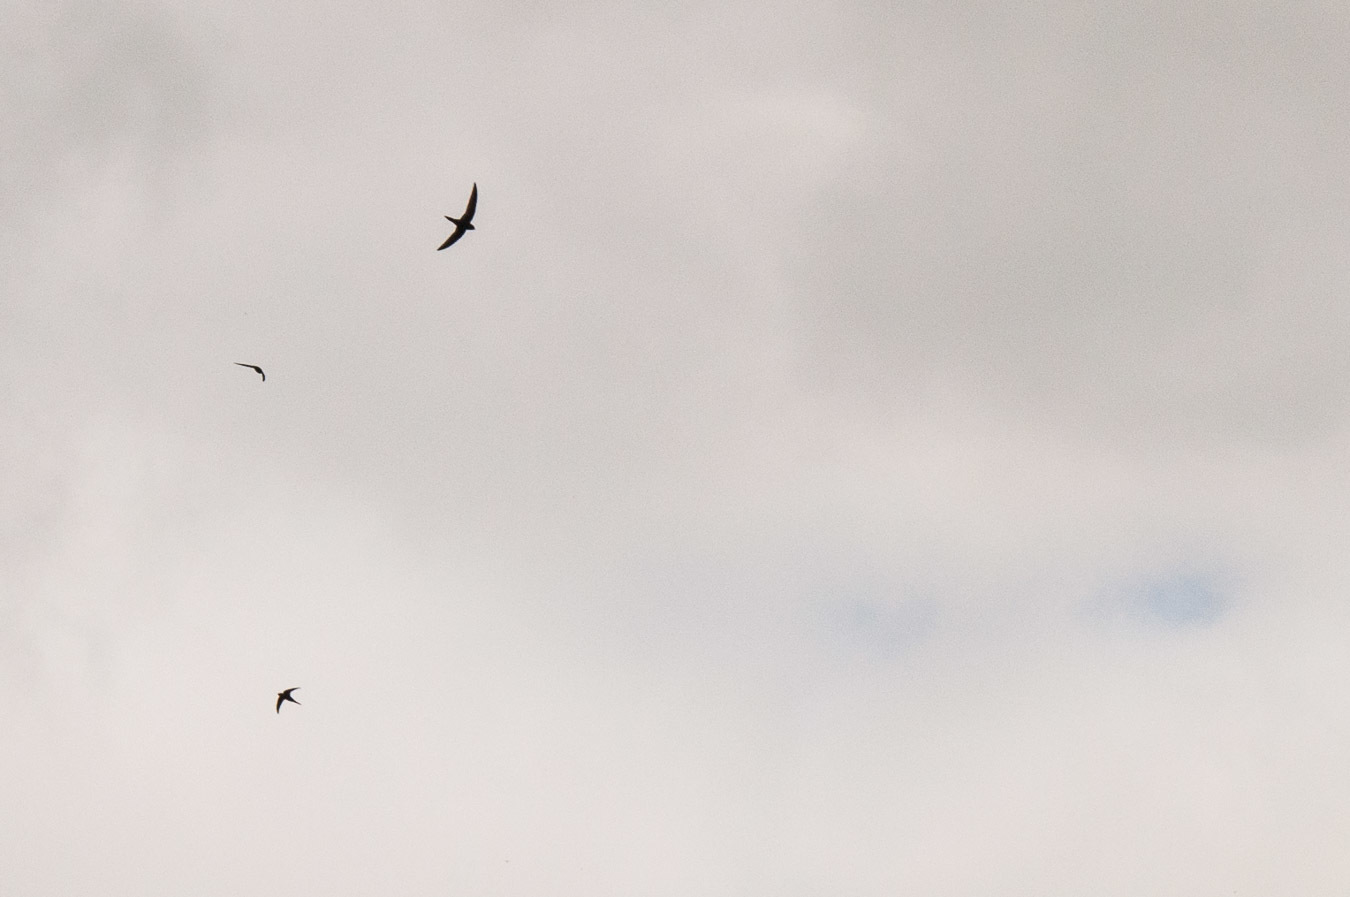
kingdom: Animalia
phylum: Chordata
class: Aves
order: Apodiformes
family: Apodidae
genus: Apus
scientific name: Apus apus
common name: Common swift
